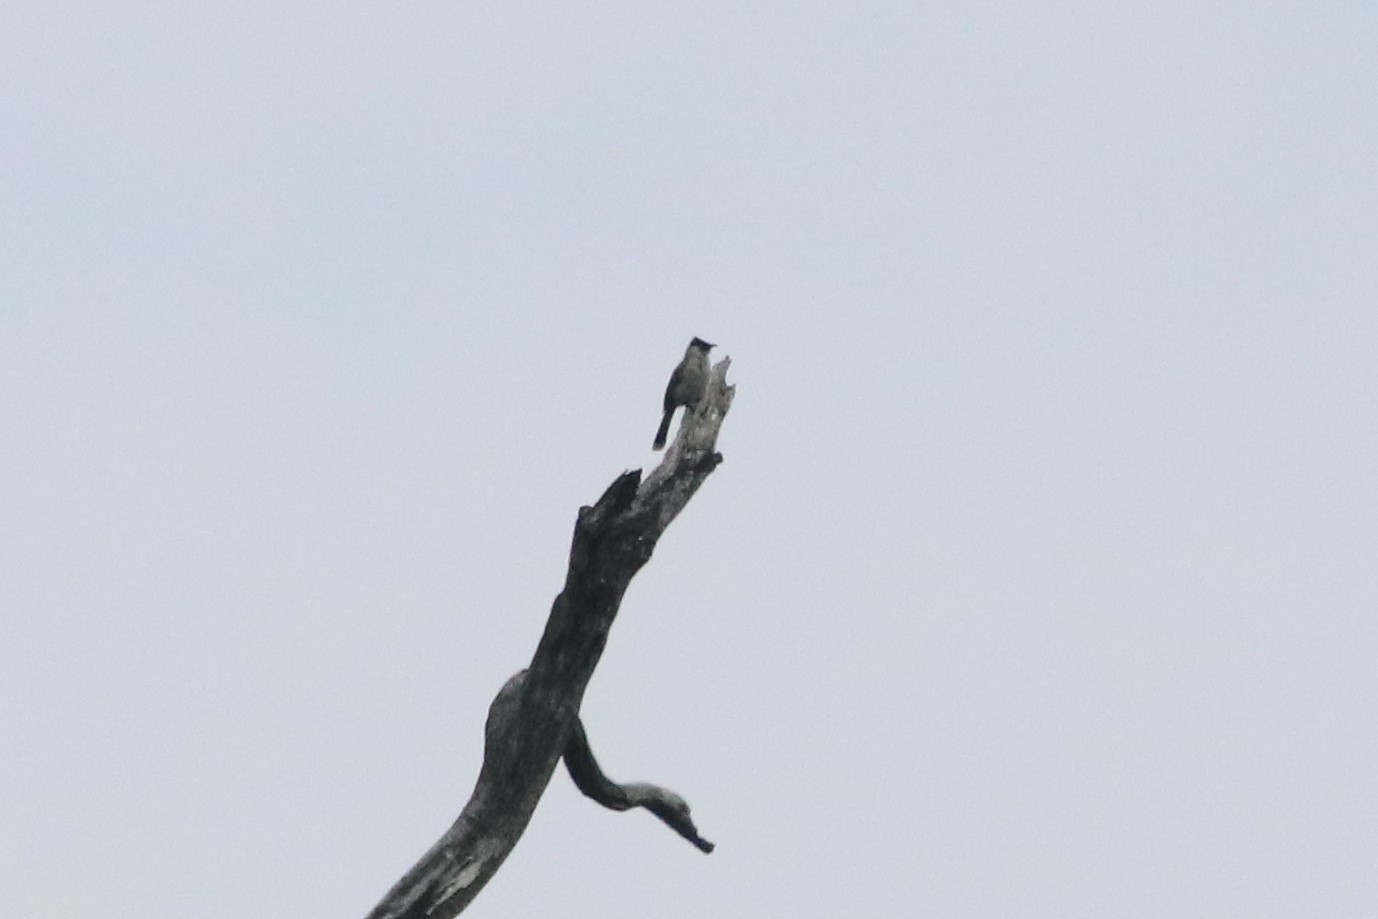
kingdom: Animalia
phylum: Chordata
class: Aves
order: Passeriformes
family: Pycnonotidae
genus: Pycnonotus
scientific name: Pycnonotus aurigaster
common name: Sooty-headed bulbul
